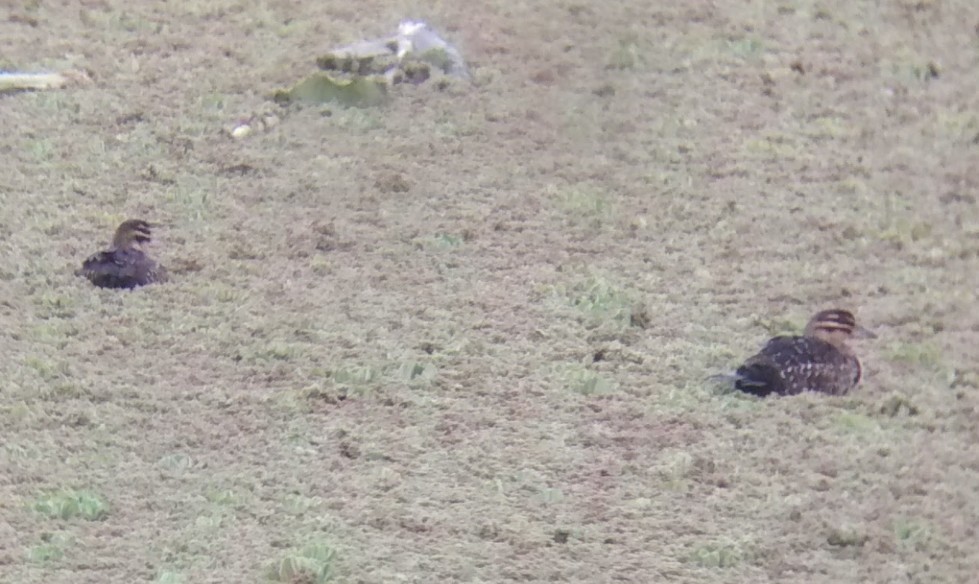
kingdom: Animalia
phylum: Chordata
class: Aves
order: Anseriformes
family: Anatidae
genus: Nomonyx
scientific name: Nomonyx dominicus
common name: Masked duck
